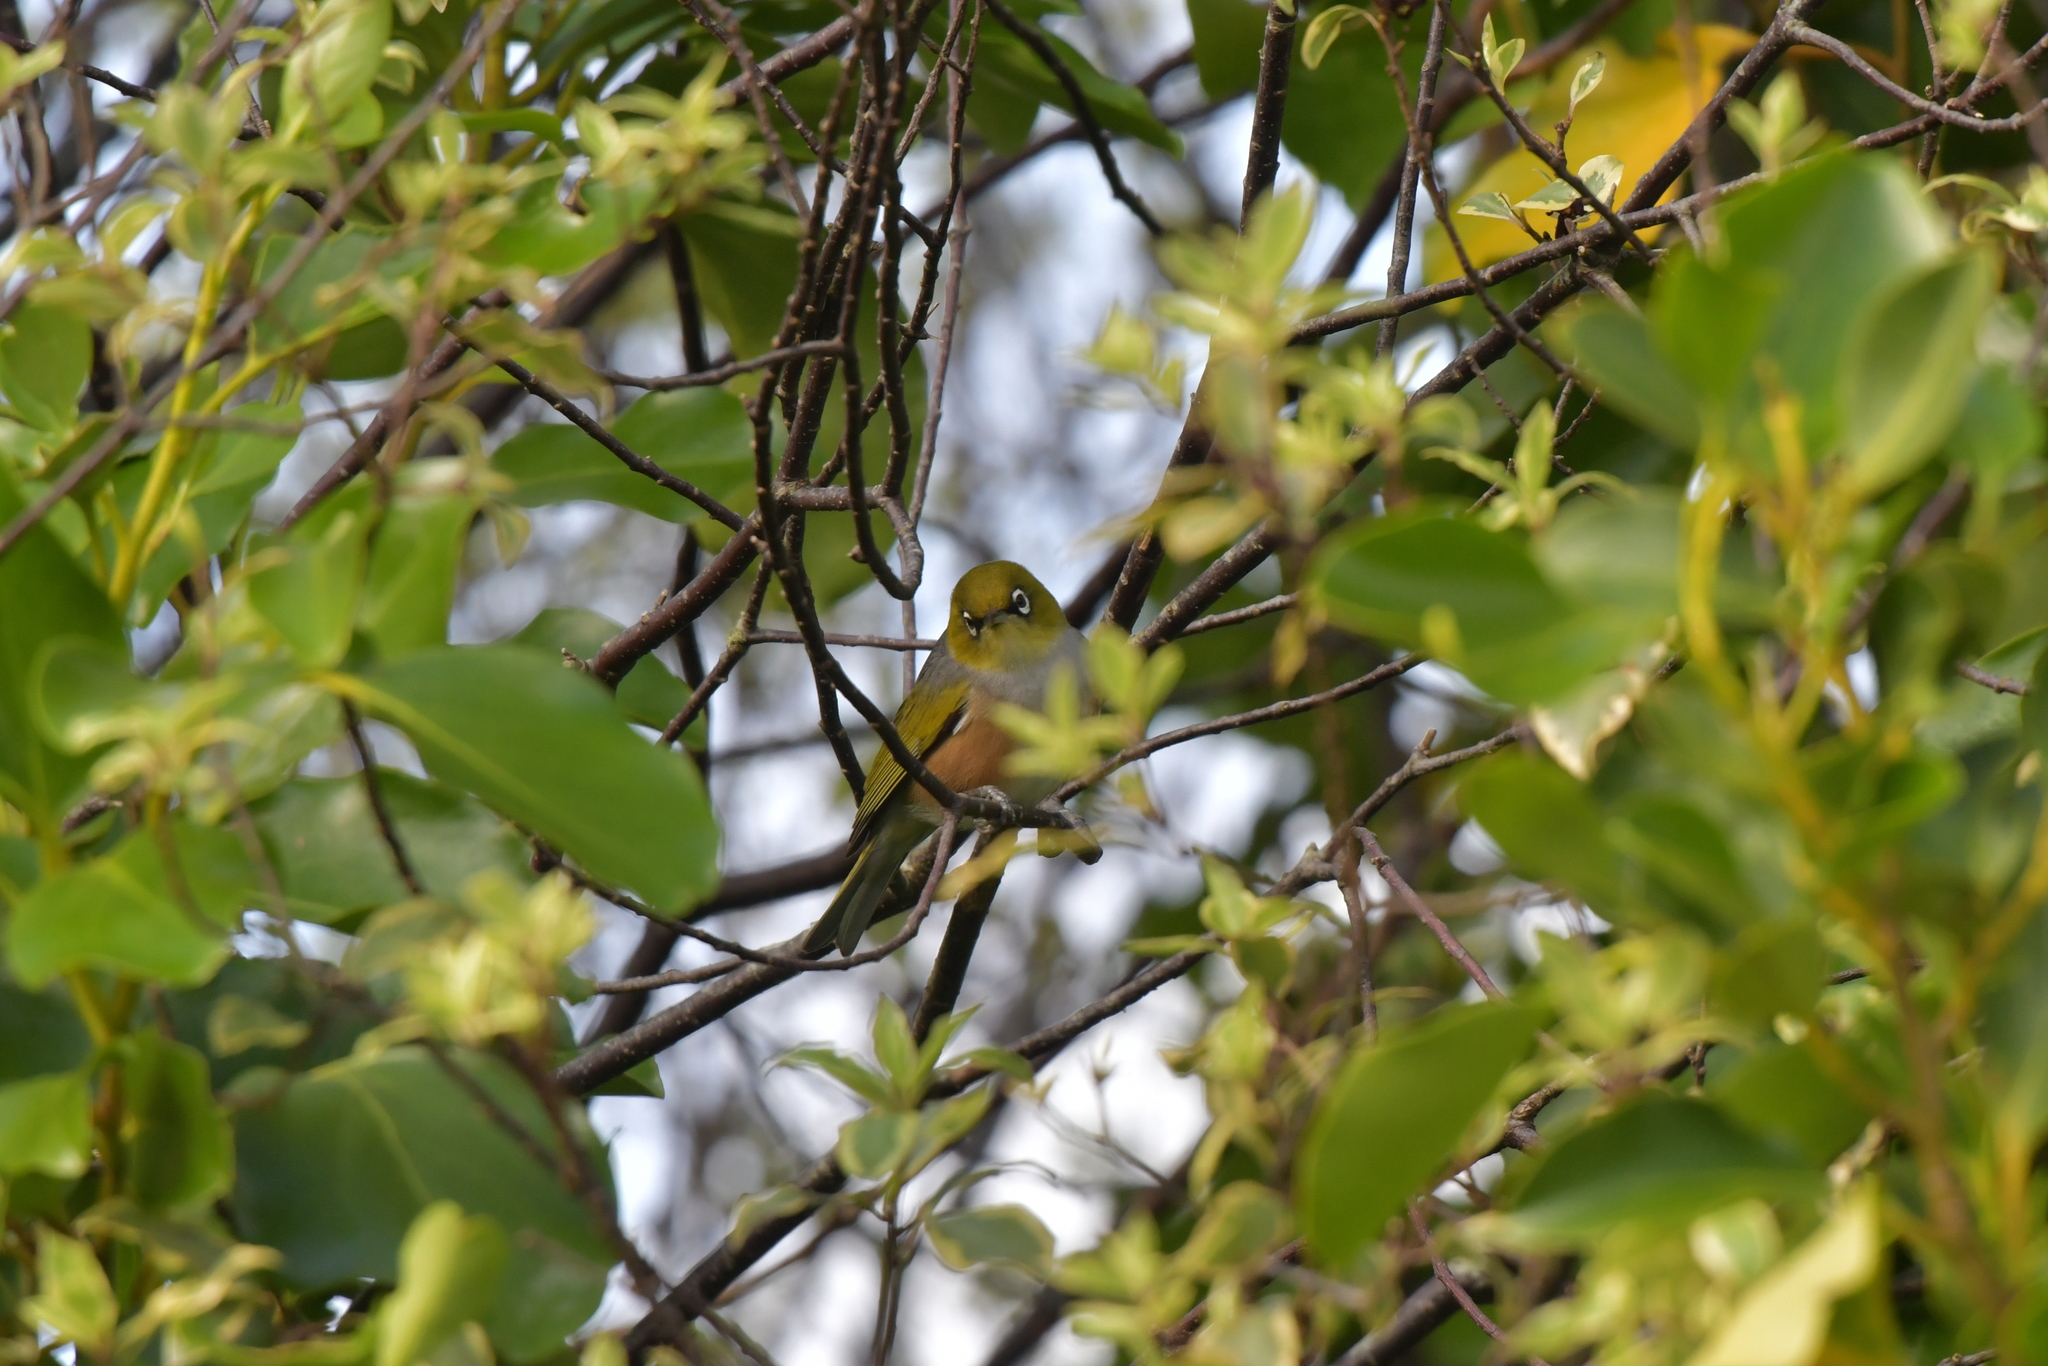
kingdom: Animalia
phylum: Chordata
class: Aves
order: Passeriformes
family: Zosteropidae
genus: Zosterops
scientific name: Zosterops lateralis
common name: Silvereye
